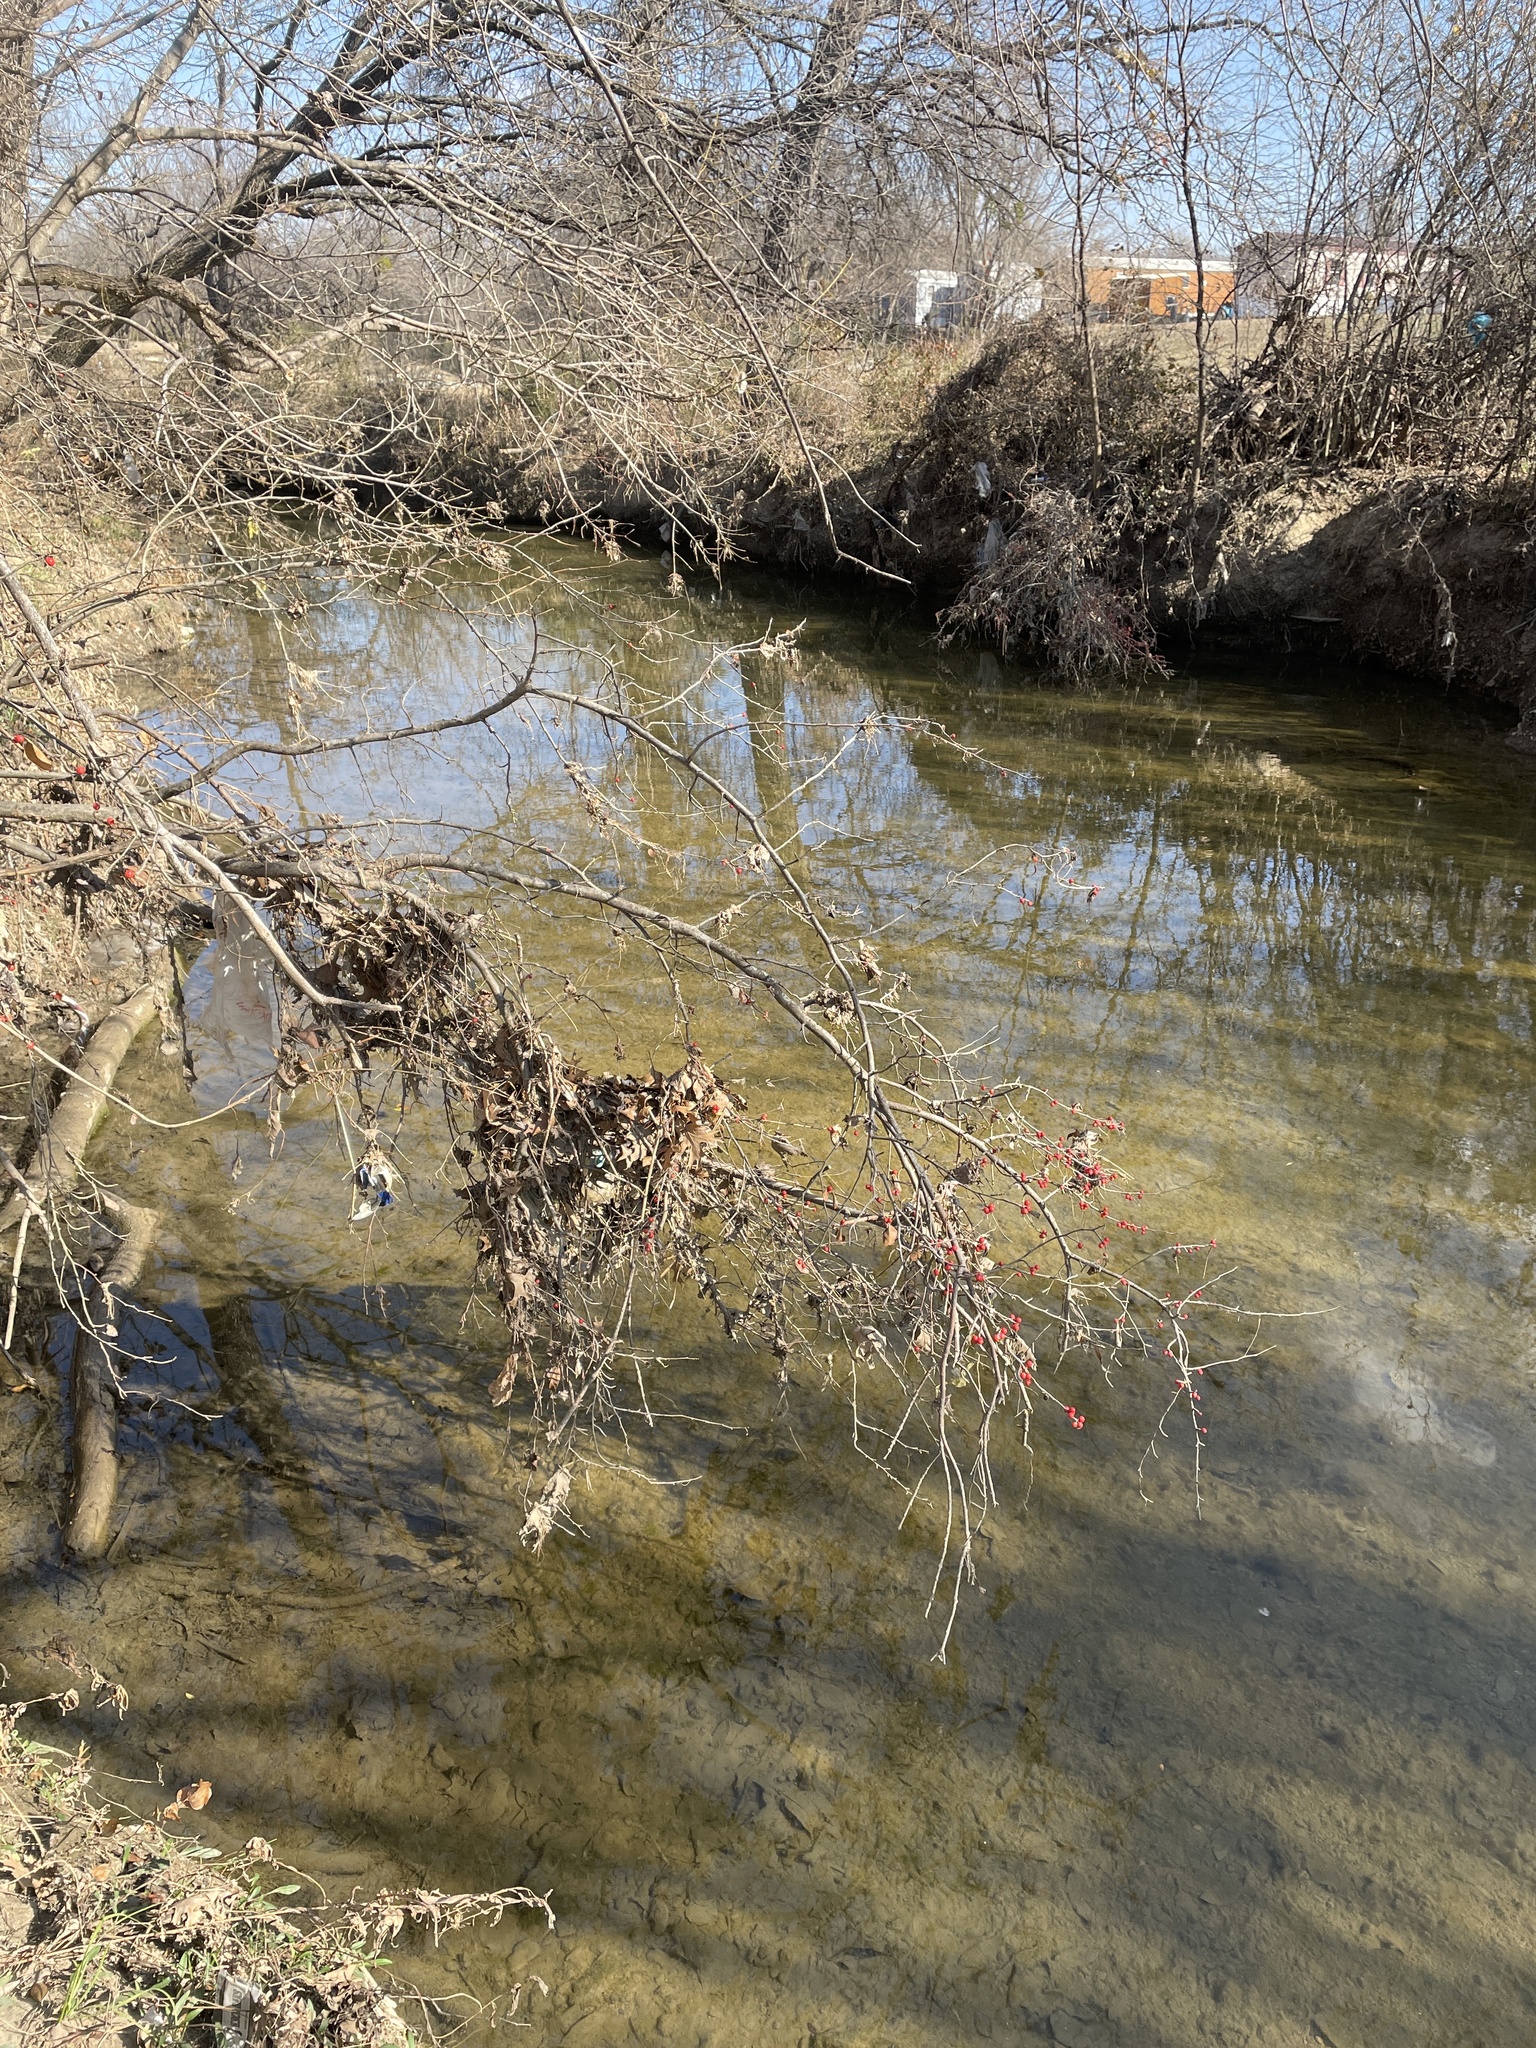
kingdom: Plantae
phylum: Tracheophyta
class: Magnoliopsida
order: Aquifoliales
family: Aquifoliaceae
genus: Ilex
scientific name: Ilex decidua
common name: Possum-haw
